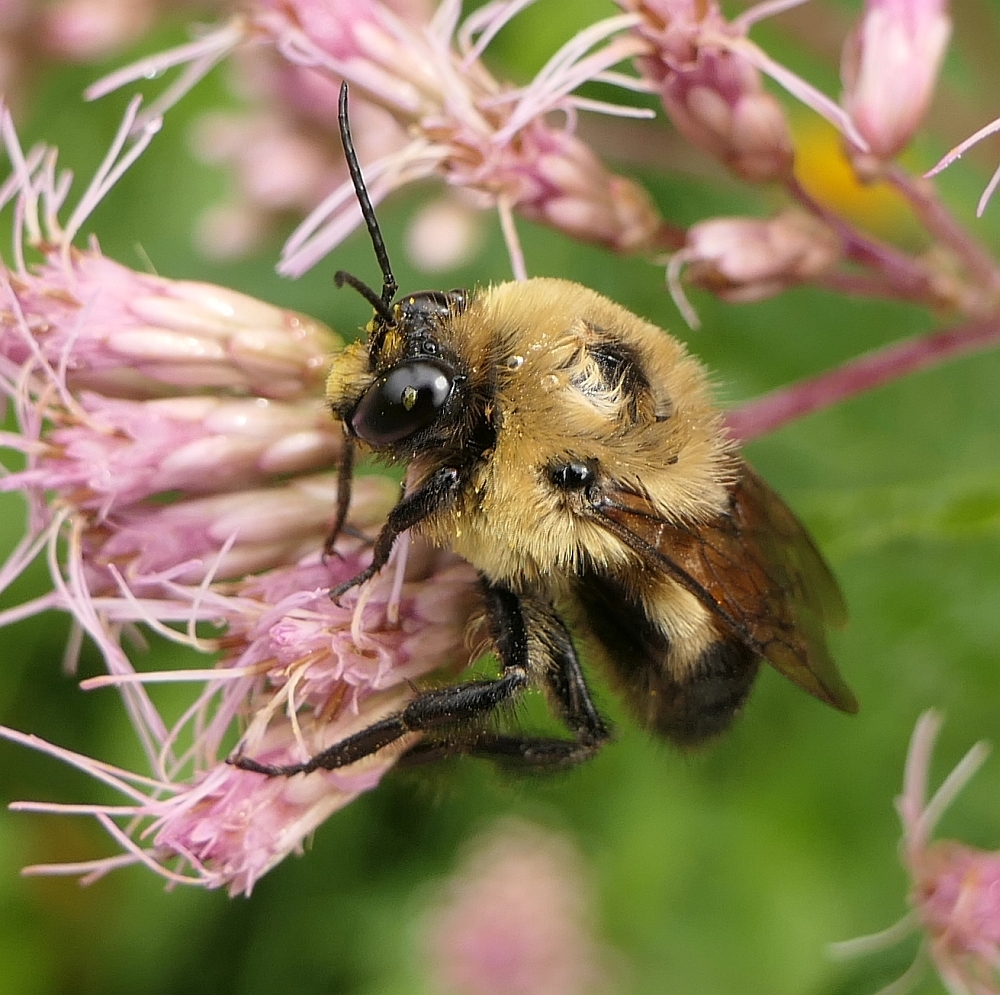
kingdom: Animalia
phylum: Arthropoda
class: Insecta
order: Hymenoptera
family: Apidae
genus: Bombus
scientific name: Bombus griseocollis
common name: Brown-belted bumble bee
